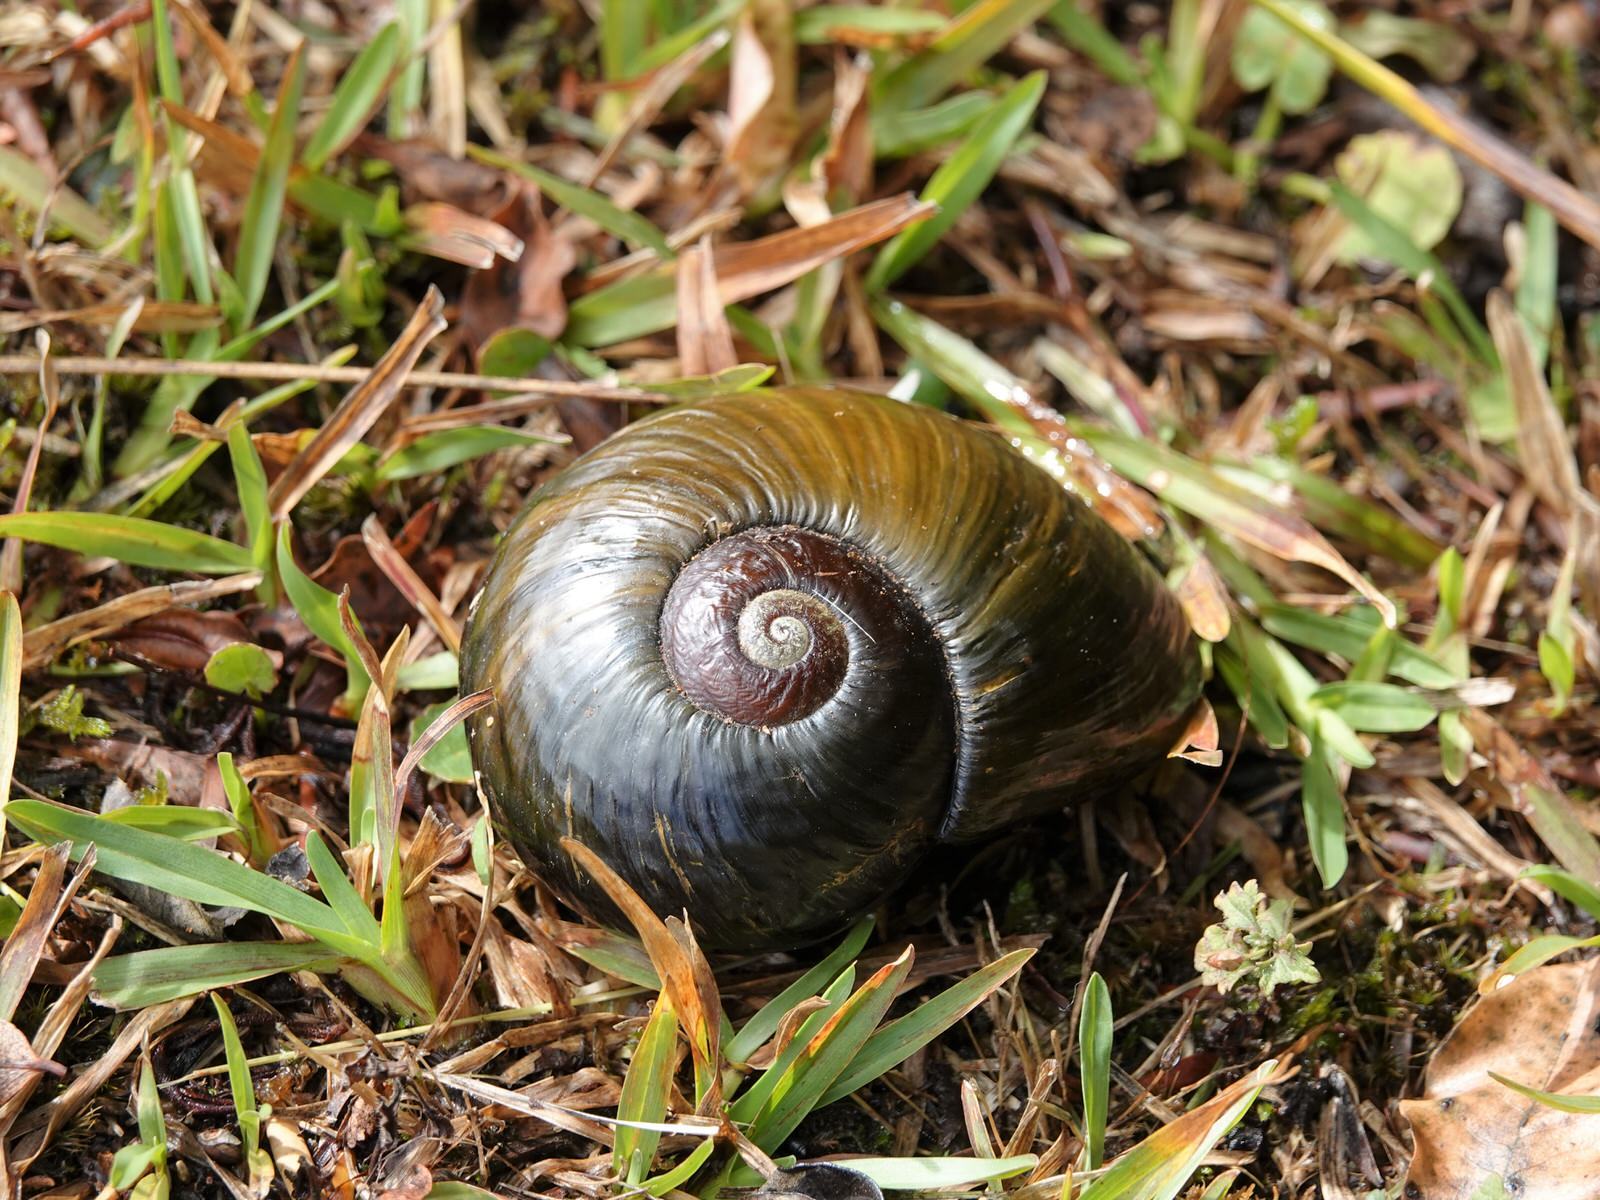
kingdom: Animalia
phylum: Mollusca
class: Gastropoda
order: Stylommatophora
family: Rhytididae
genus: Paryphanta
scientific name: Paryphanta busbyi
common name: Kauri snail
